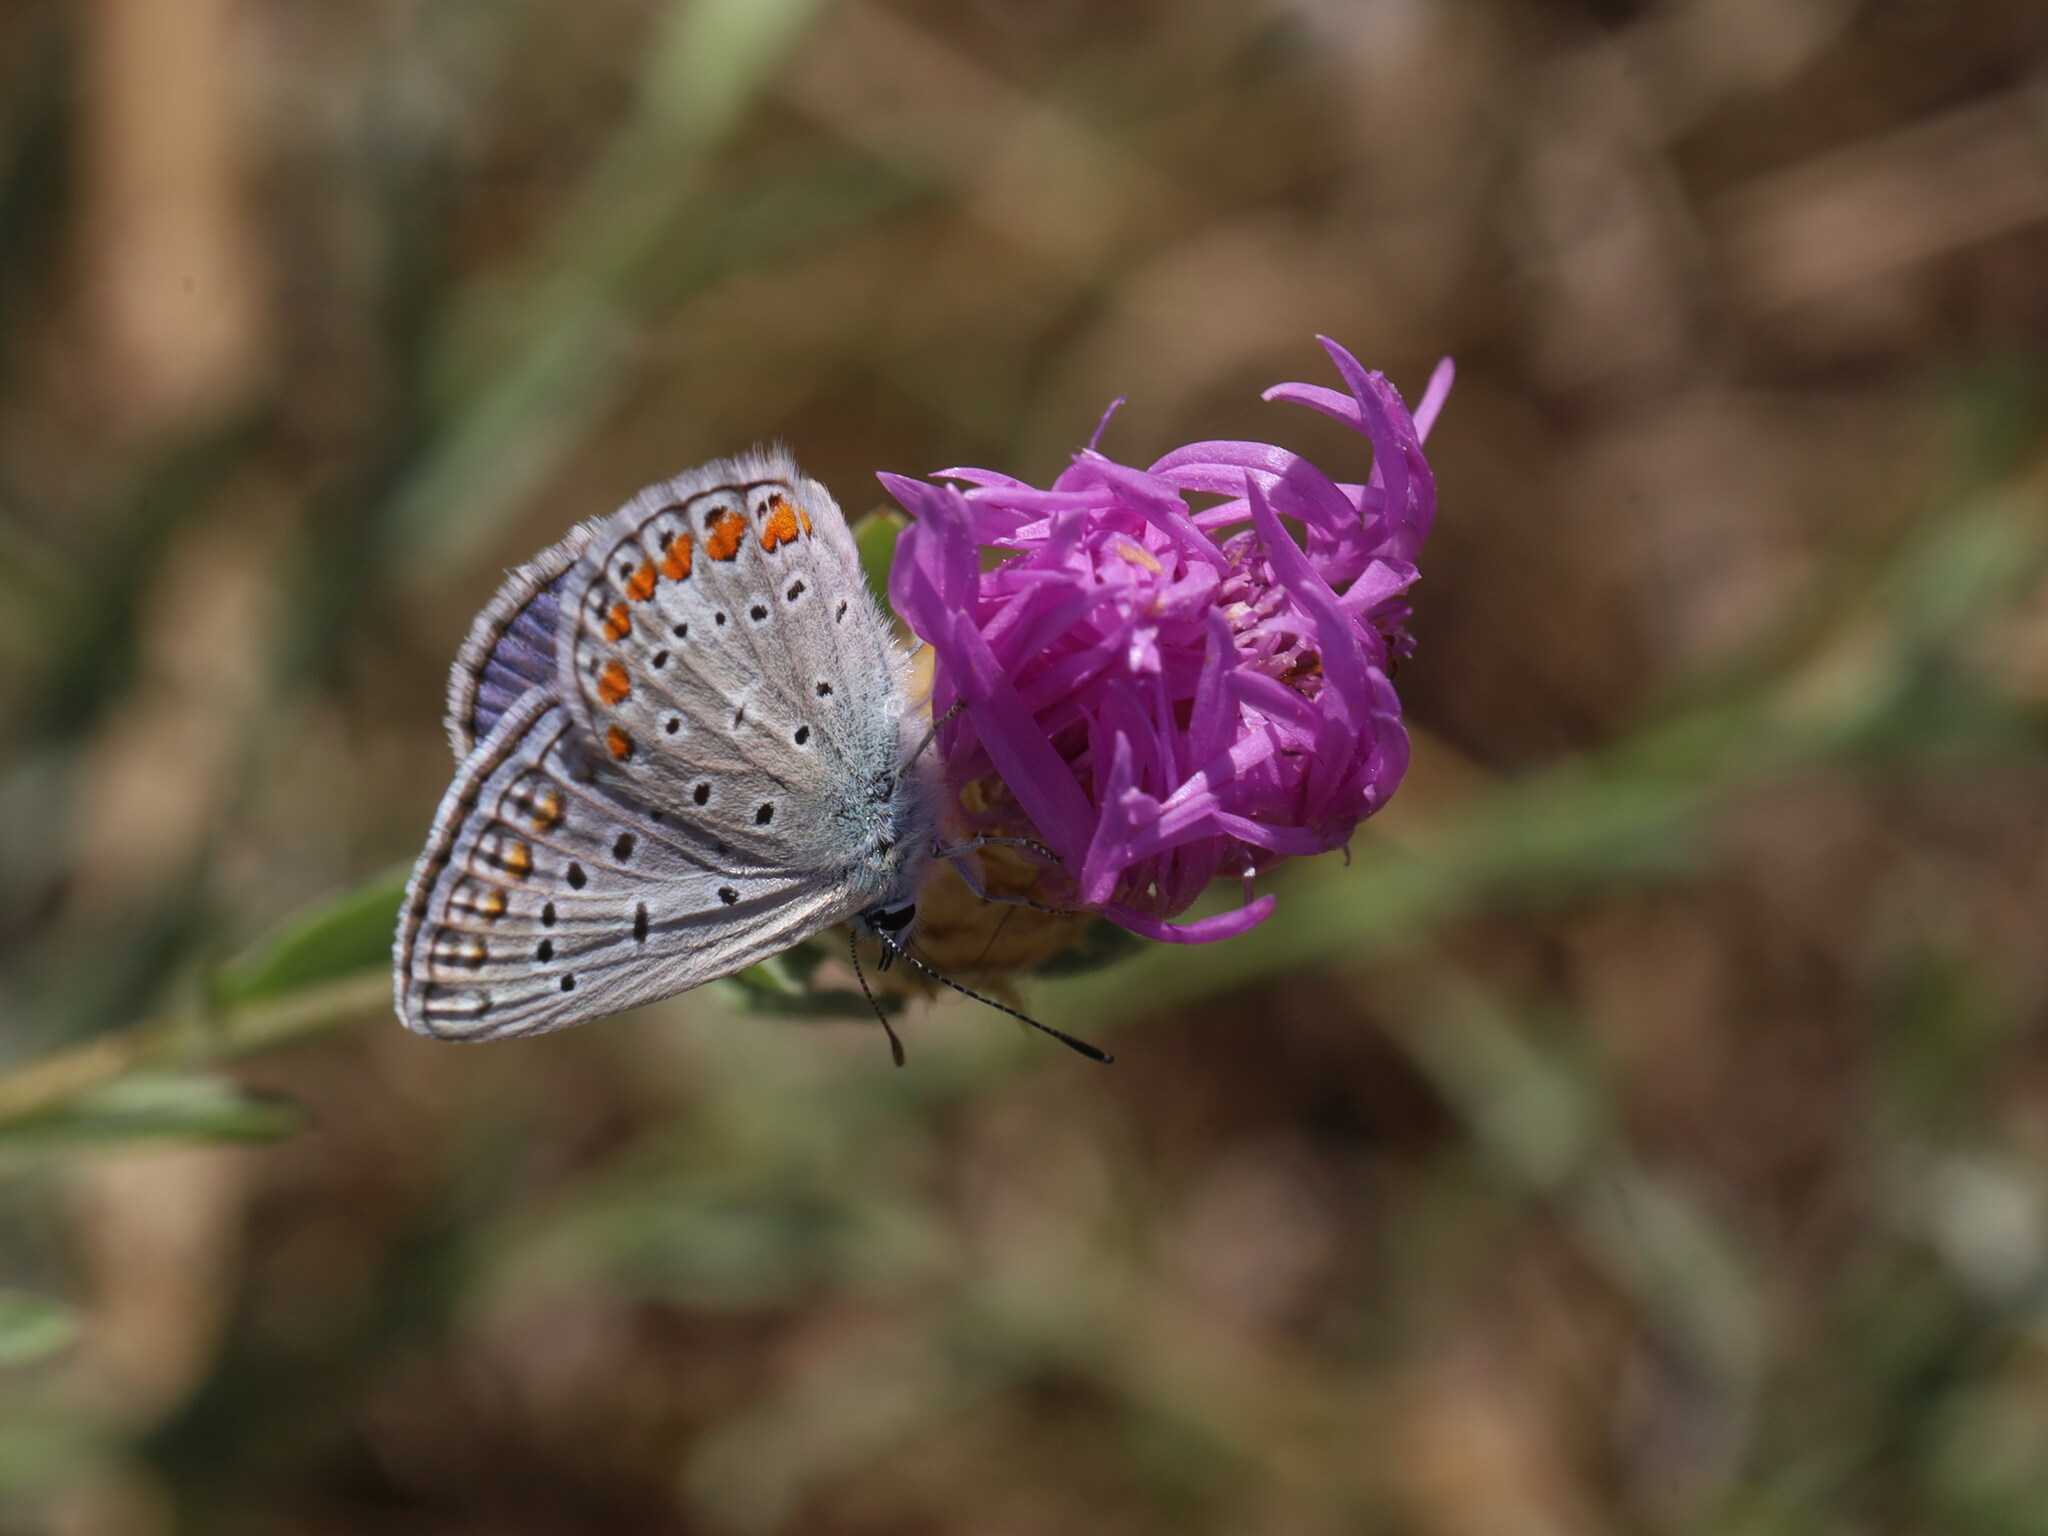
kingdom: Animalia
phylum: Arthropoda
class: Insecta
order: Lepidoptera
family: Lycaenidae
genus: Polyommatus
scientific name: Polyommatus icarus
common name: Common blue
